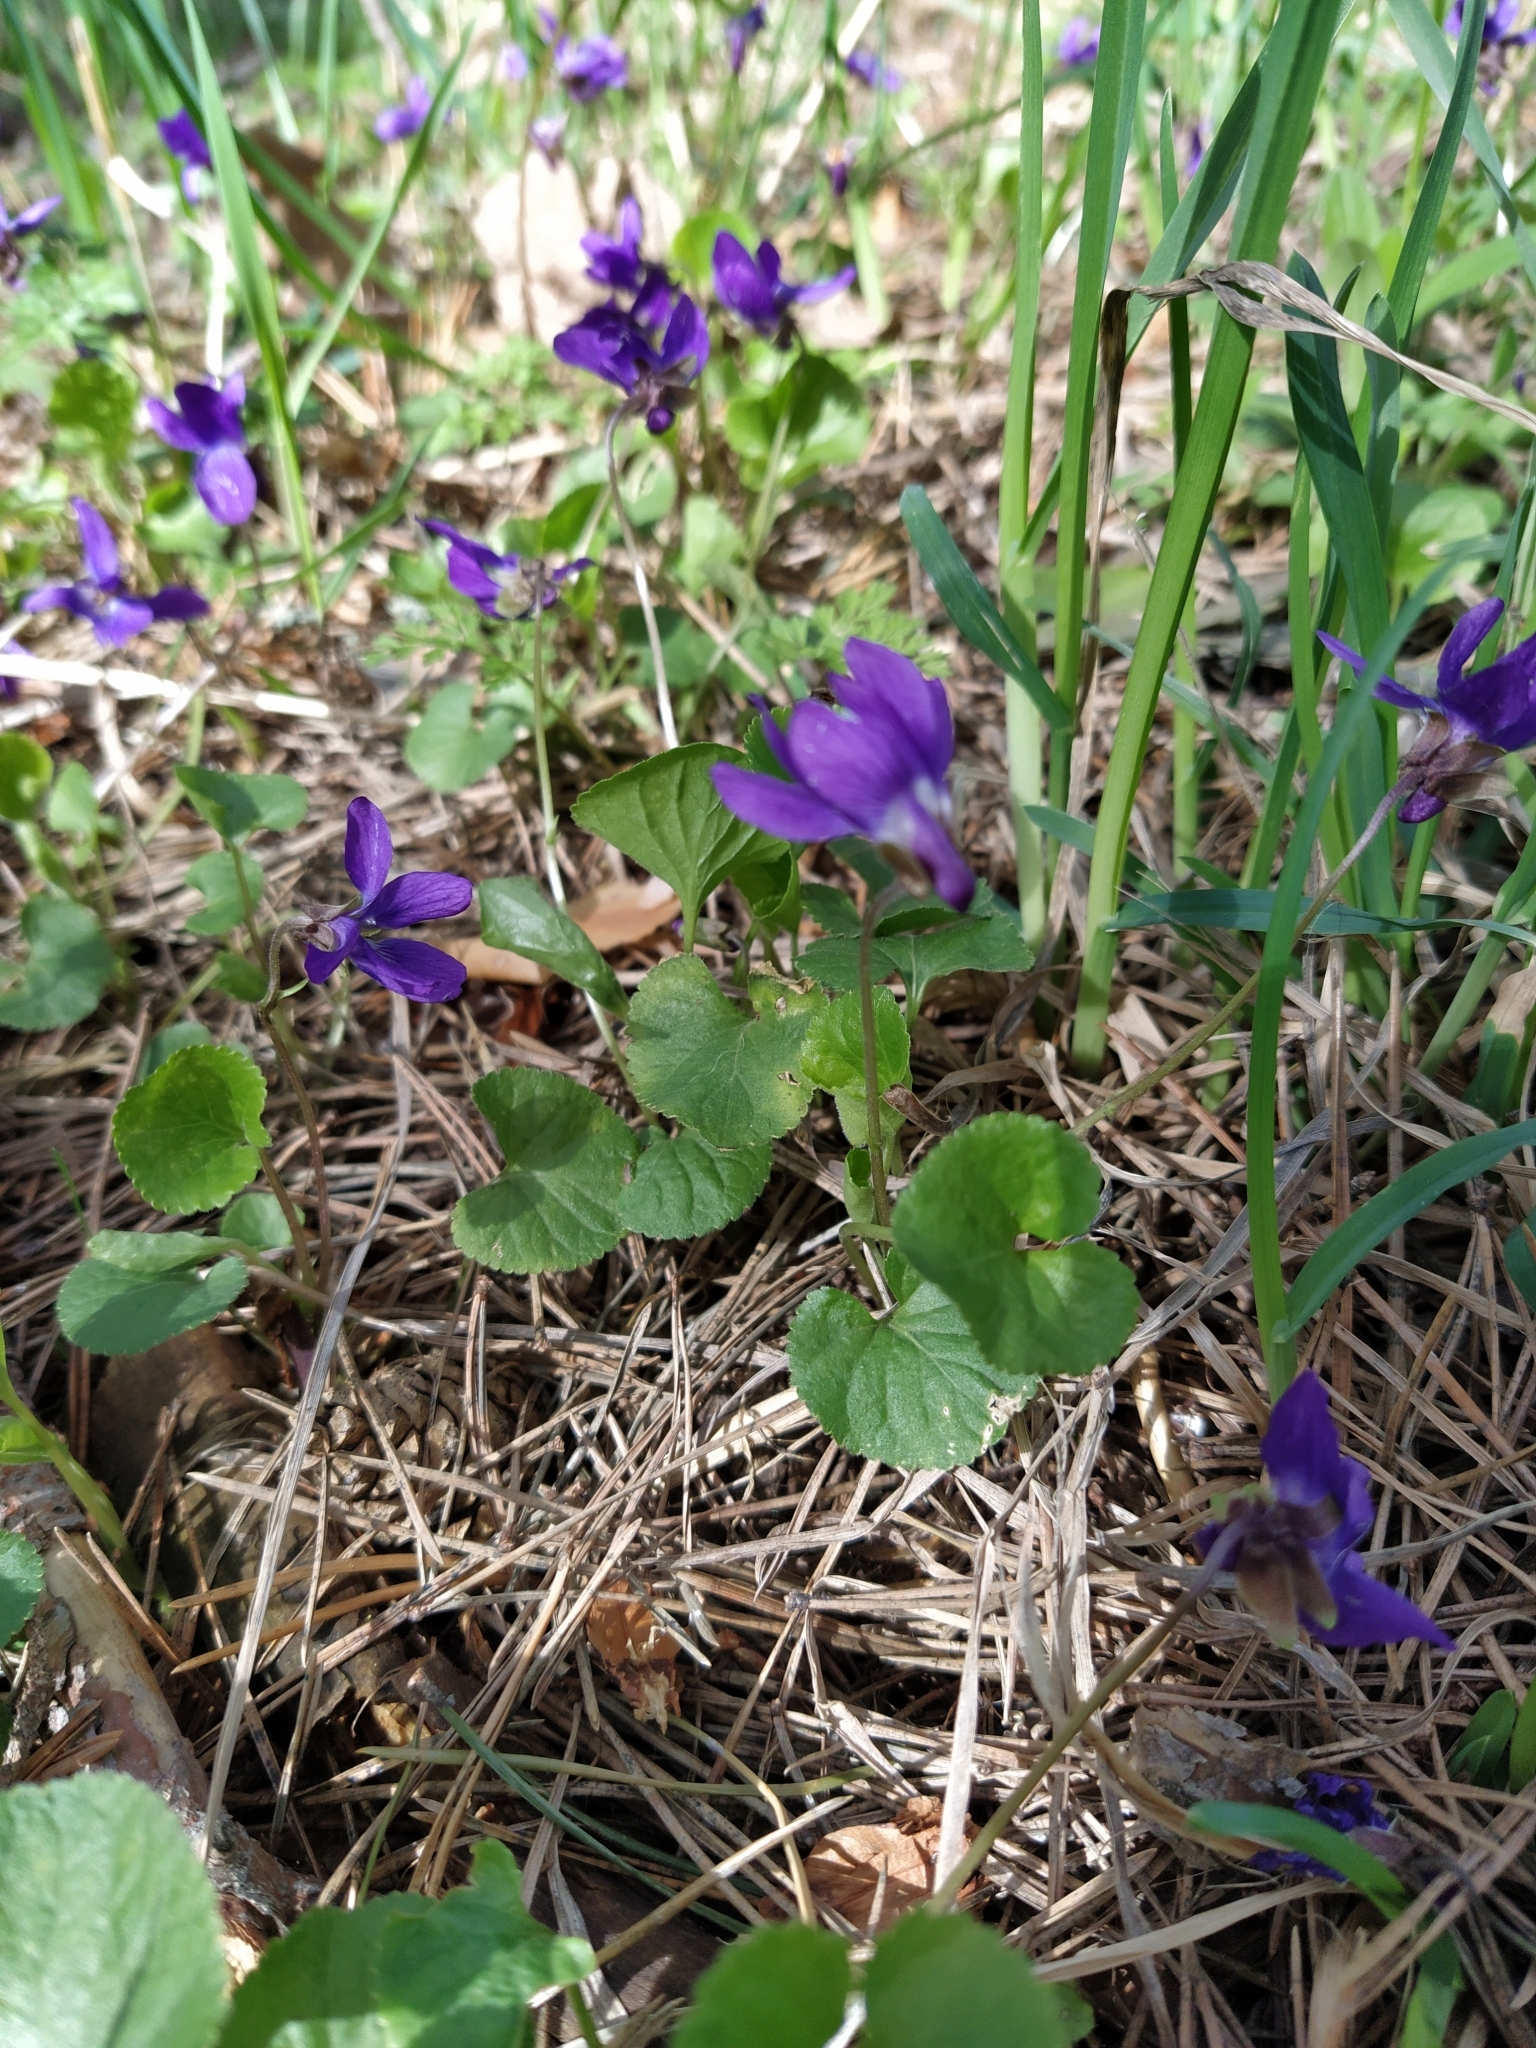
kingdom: Plantae
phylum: Tracheophyta
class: Magnoliopsida
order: Malpighiales
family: Violaceae
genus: Viola
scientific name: Viola odorata
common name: Sweet violet
